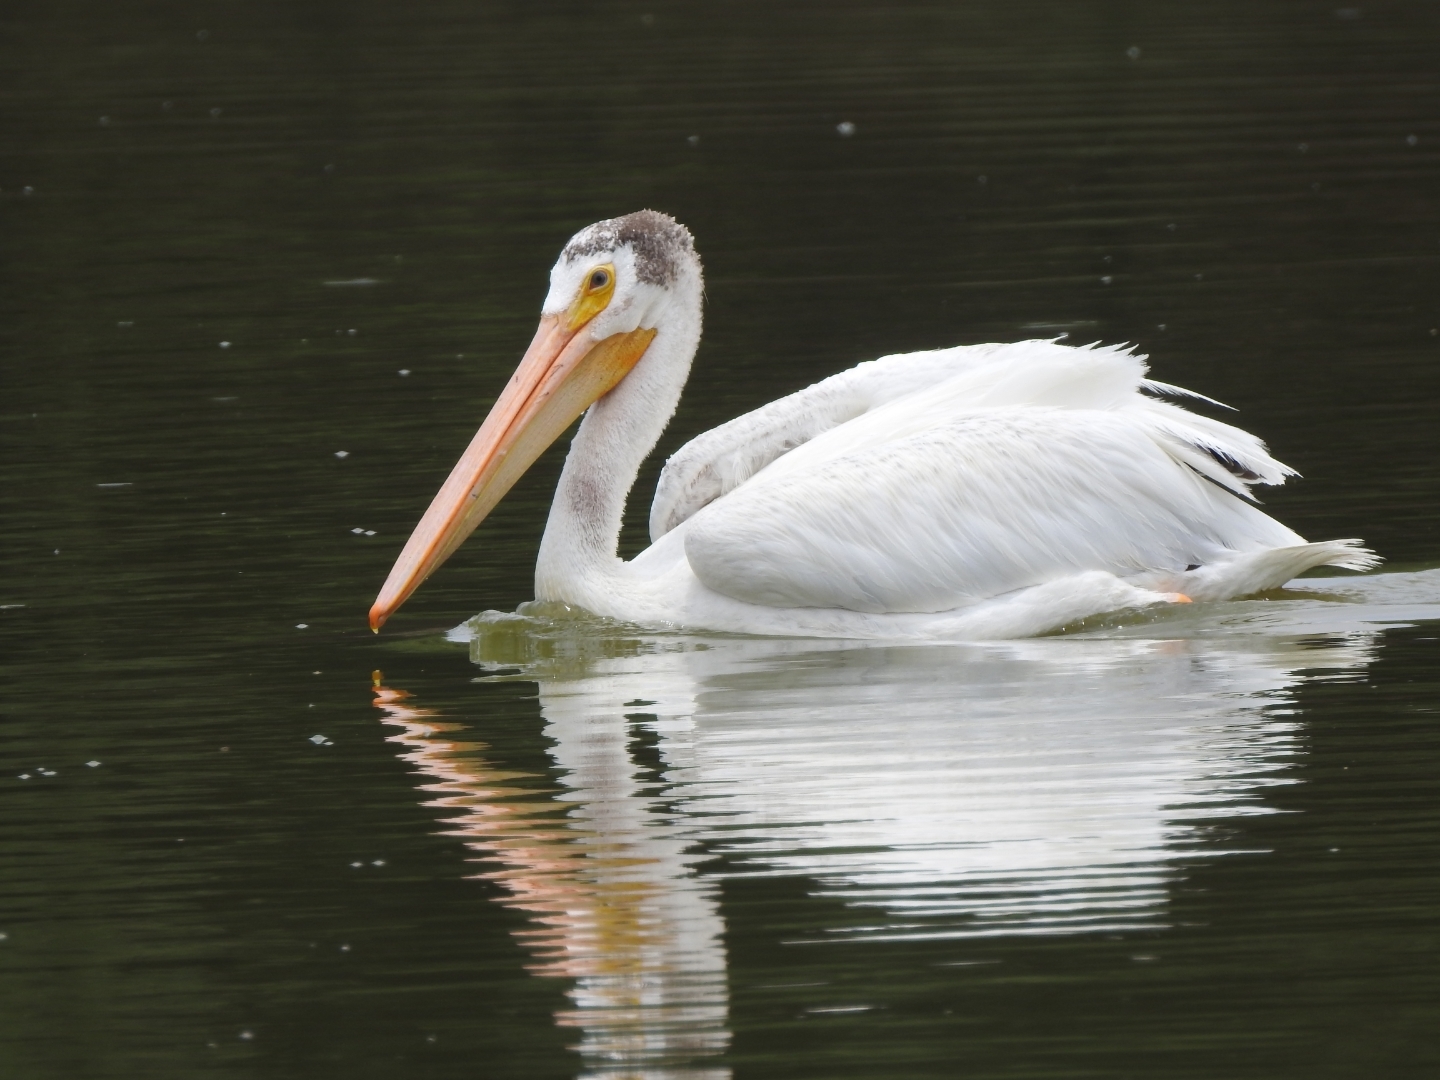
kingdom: Animalia
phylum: Chordata
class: Aves
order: Pelecaniformes
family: Pelecanidae
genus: Pelecanus
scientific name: Pelecanus erythrorhynchos
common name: American white pelican
